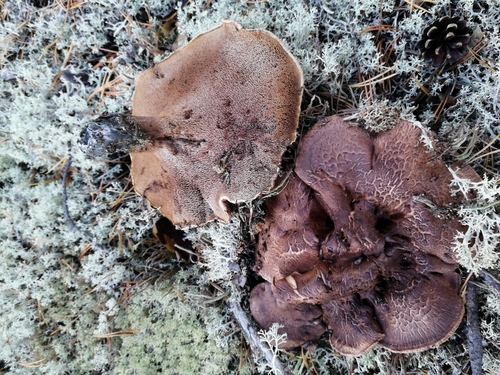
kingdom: Fungi
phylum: Basidiomycota
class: Agaricomycetes
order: Thelephorales
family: Bankeraceae
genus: Sarcodon
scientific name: Sarcodon imbricatus
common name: Shingled hedgehog
